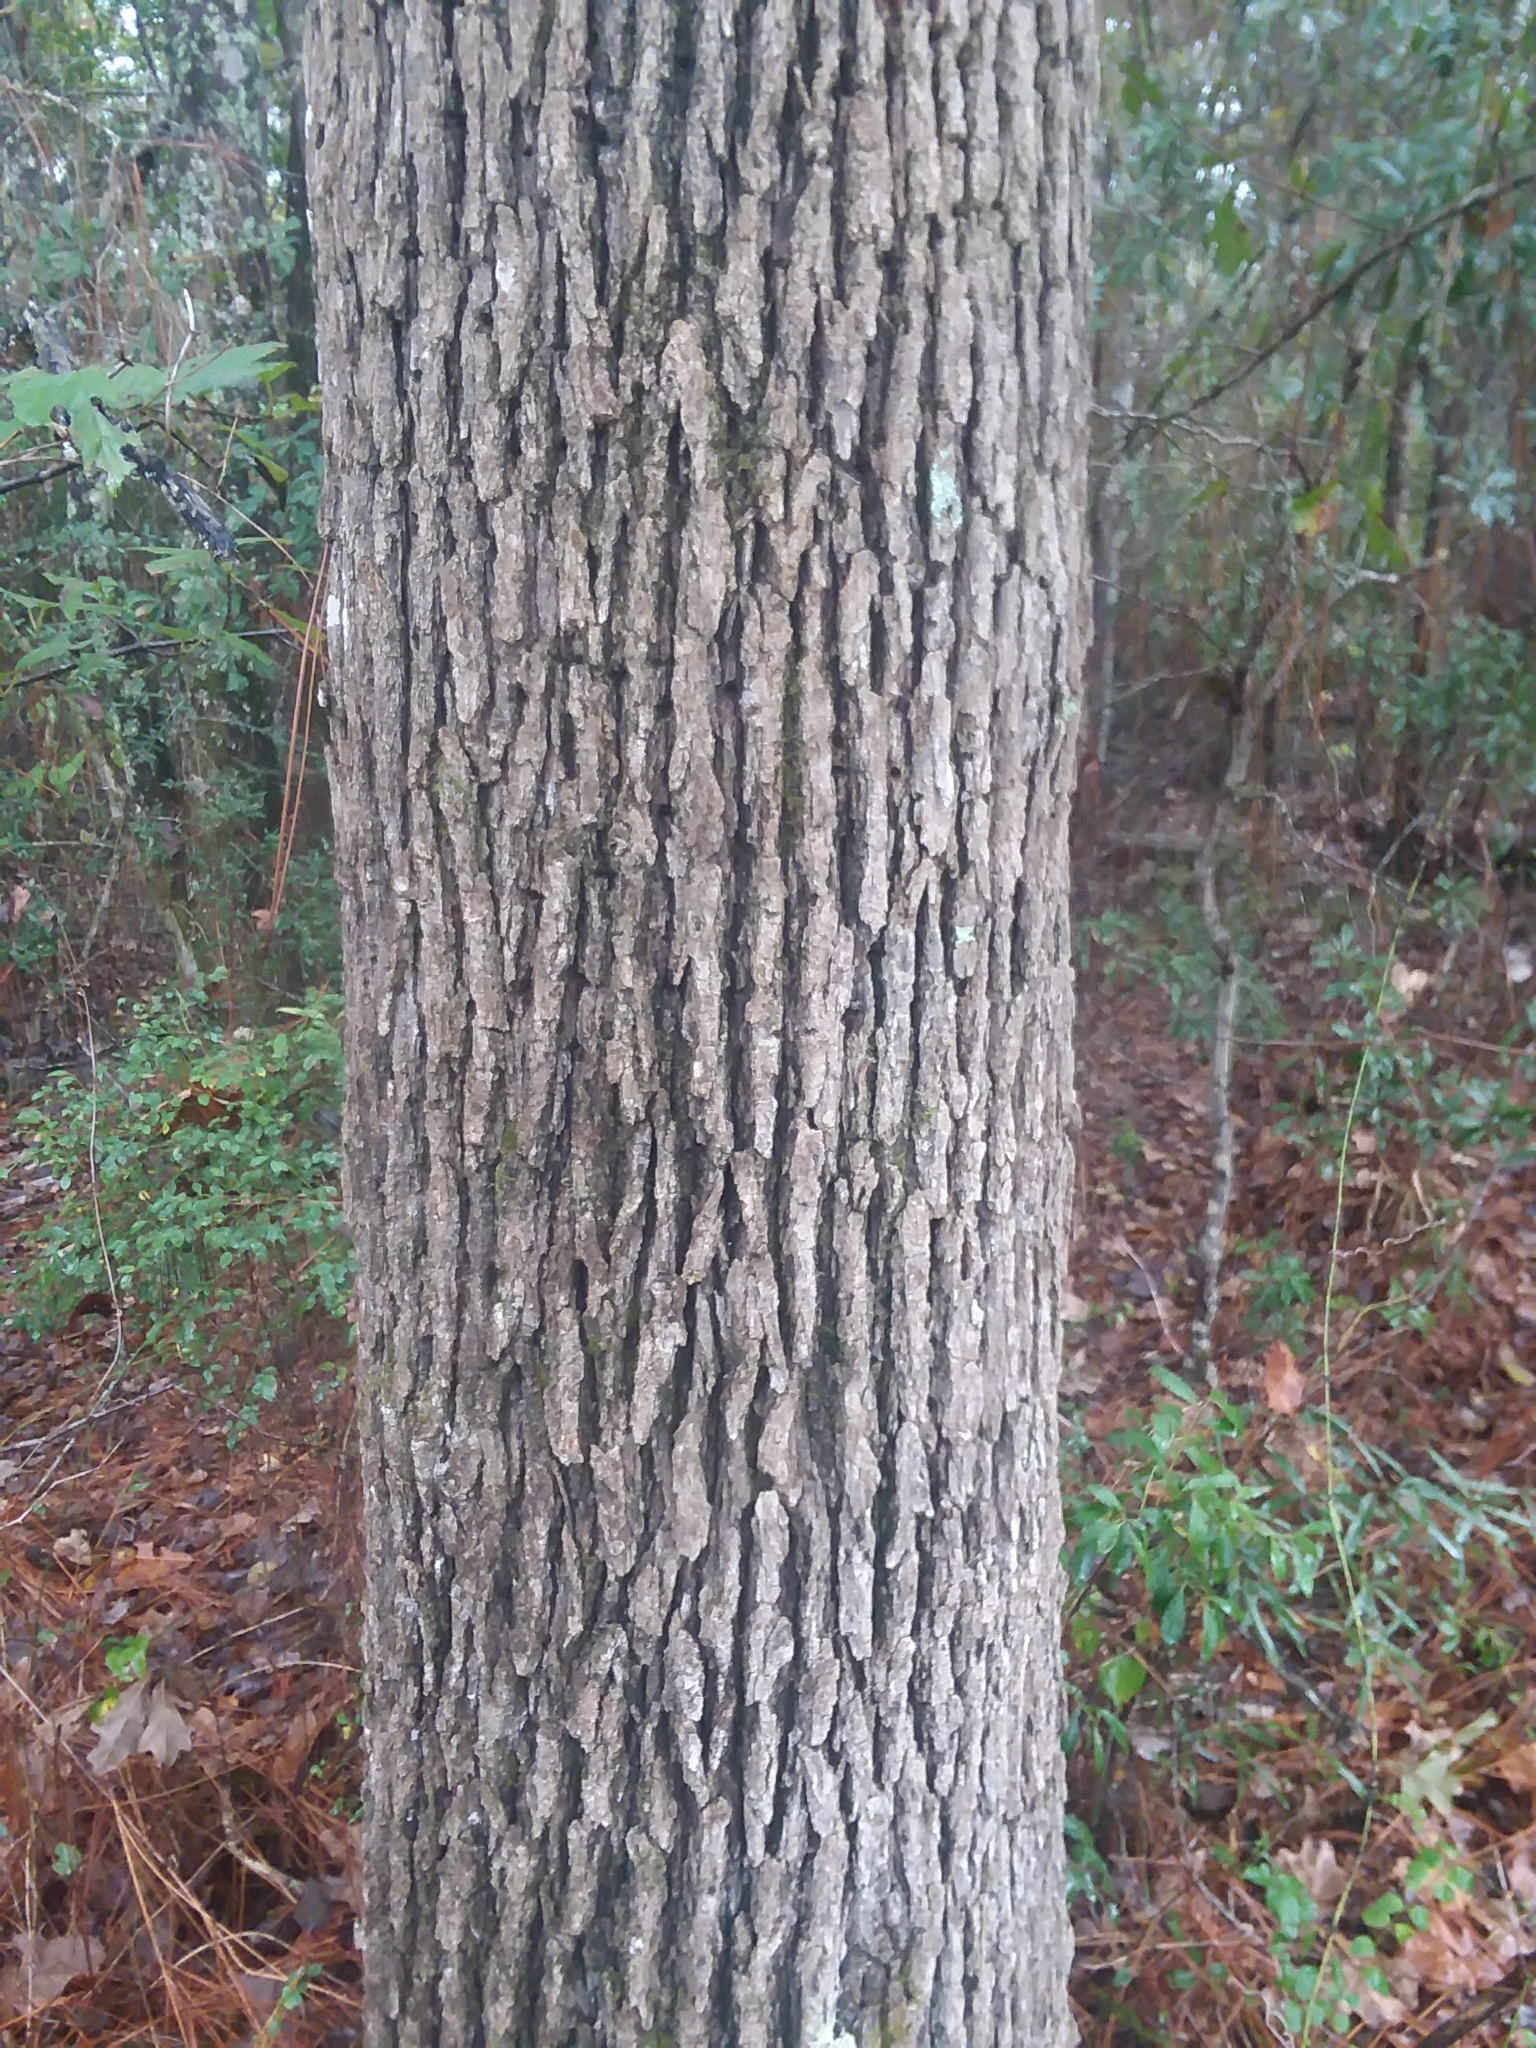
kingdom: Plantae
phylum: Tracheophyta
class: Magnoliopsida
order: Fagales
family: Fagaceae
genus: Quercus
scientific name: Quercus stellata
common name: Post oak
